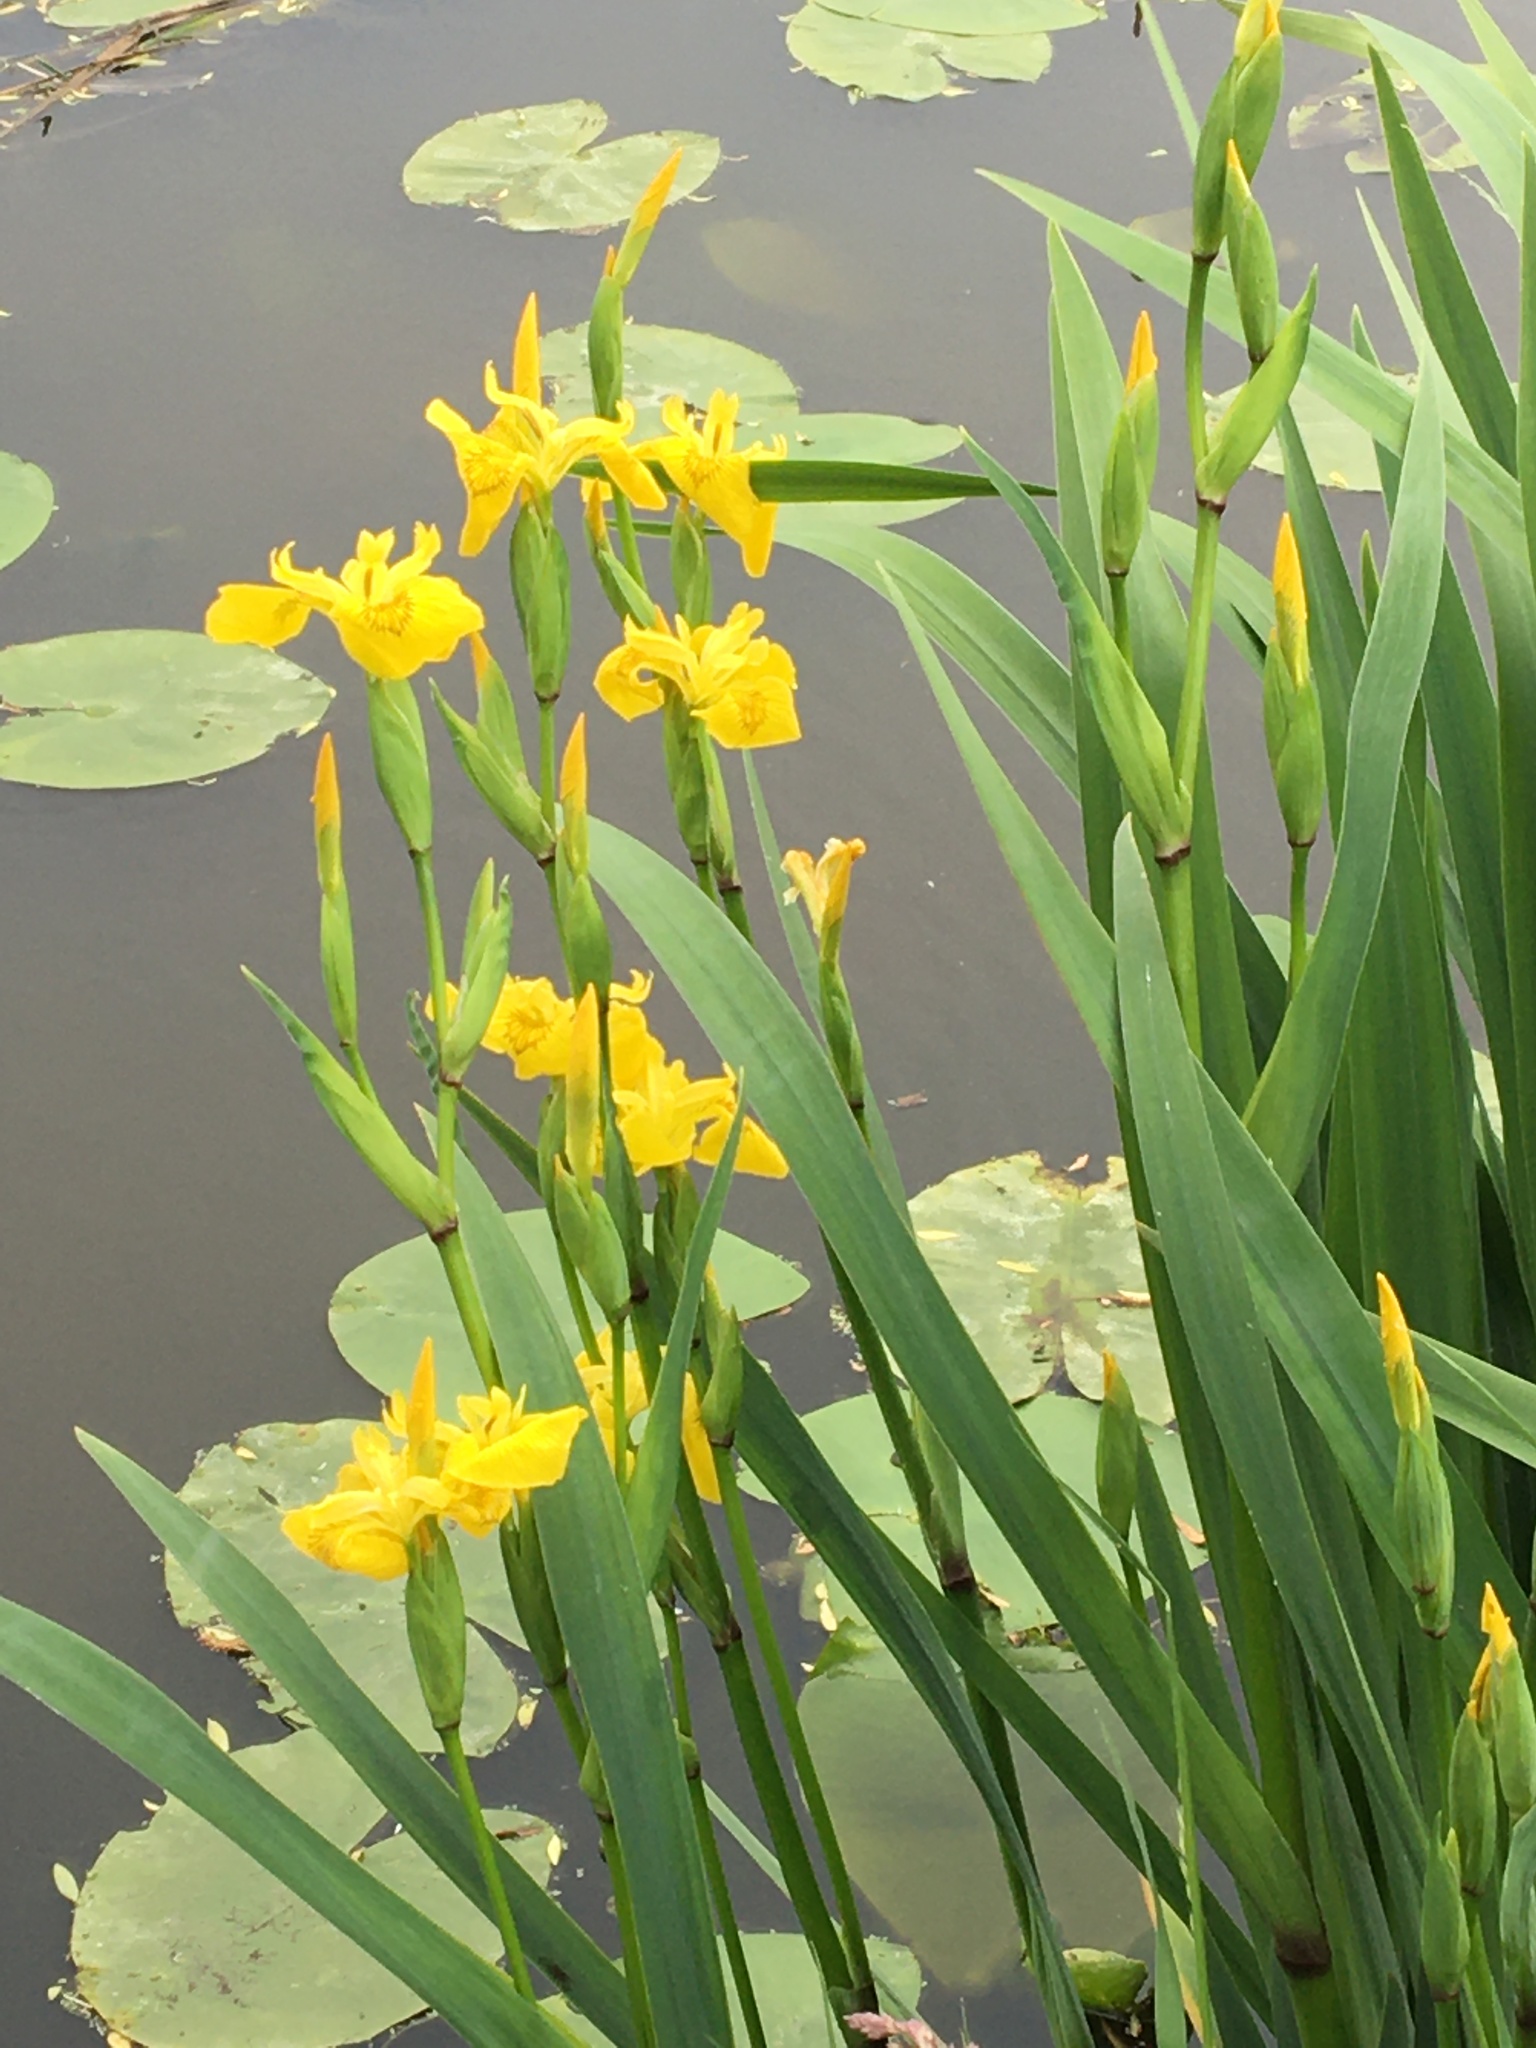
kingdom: Plantae
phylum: Tracheophyta
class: Liliopsida
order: Asparagales
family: Iridaceae
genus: Iris
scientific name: Iris pseudacorus
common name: Yellow flag
